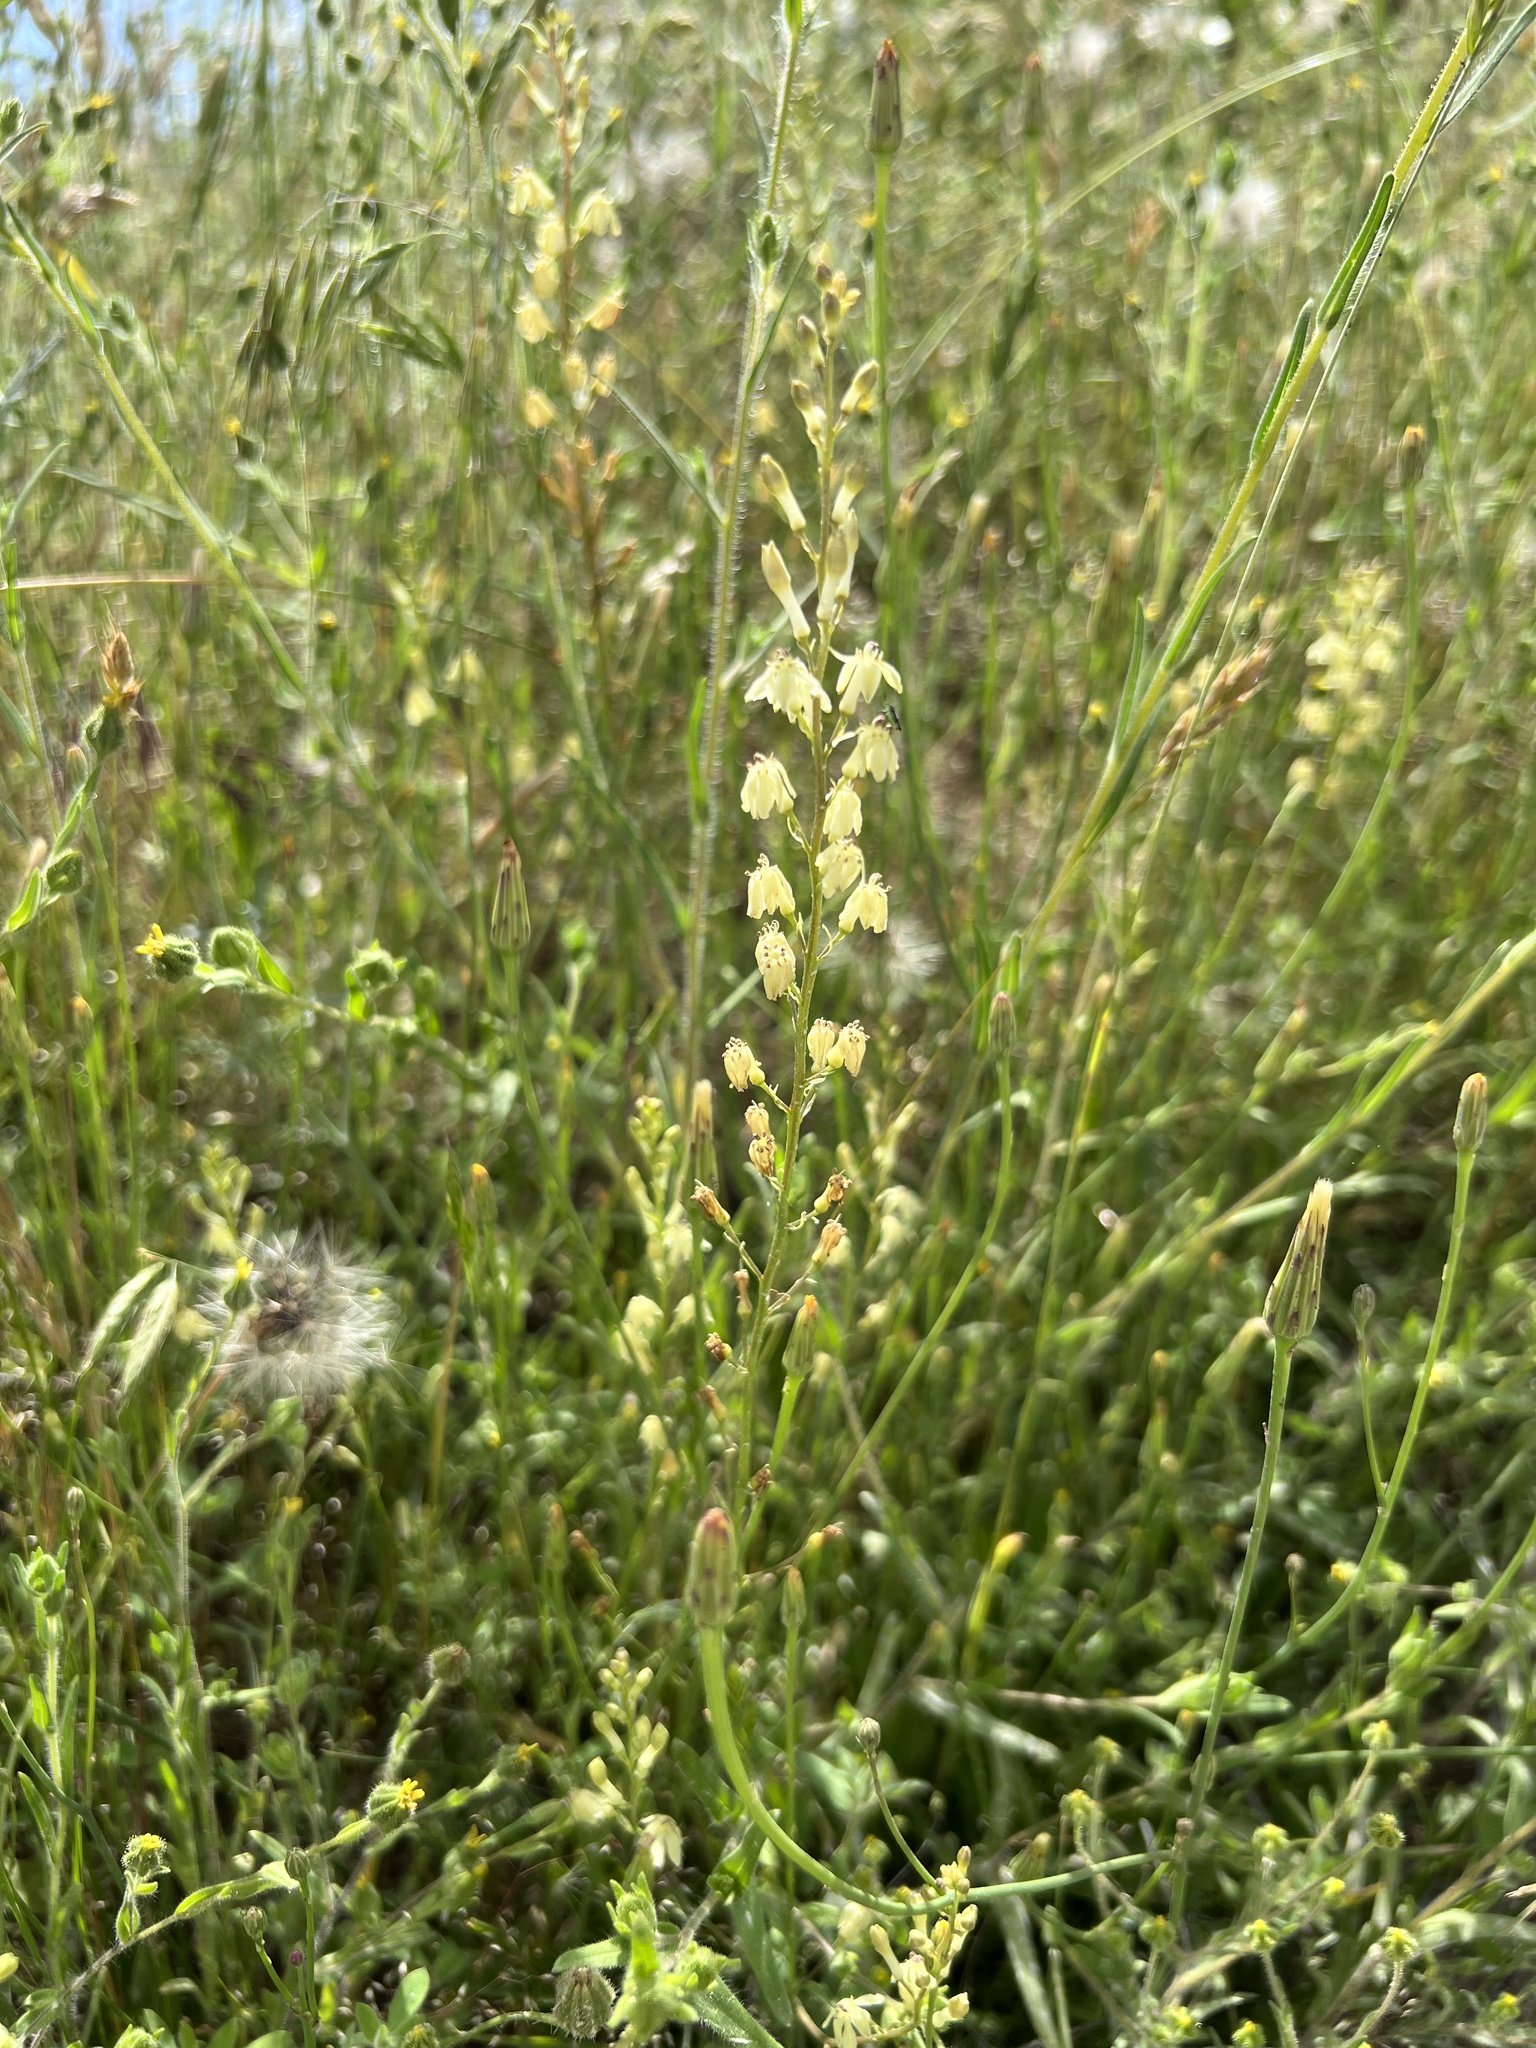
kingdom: Plantae
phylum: Tracheophyta
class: Liliopsida
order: Asparagales
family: Tecophilaeaceae
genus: Odontostomum
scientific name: Odontostomum hartwegii
